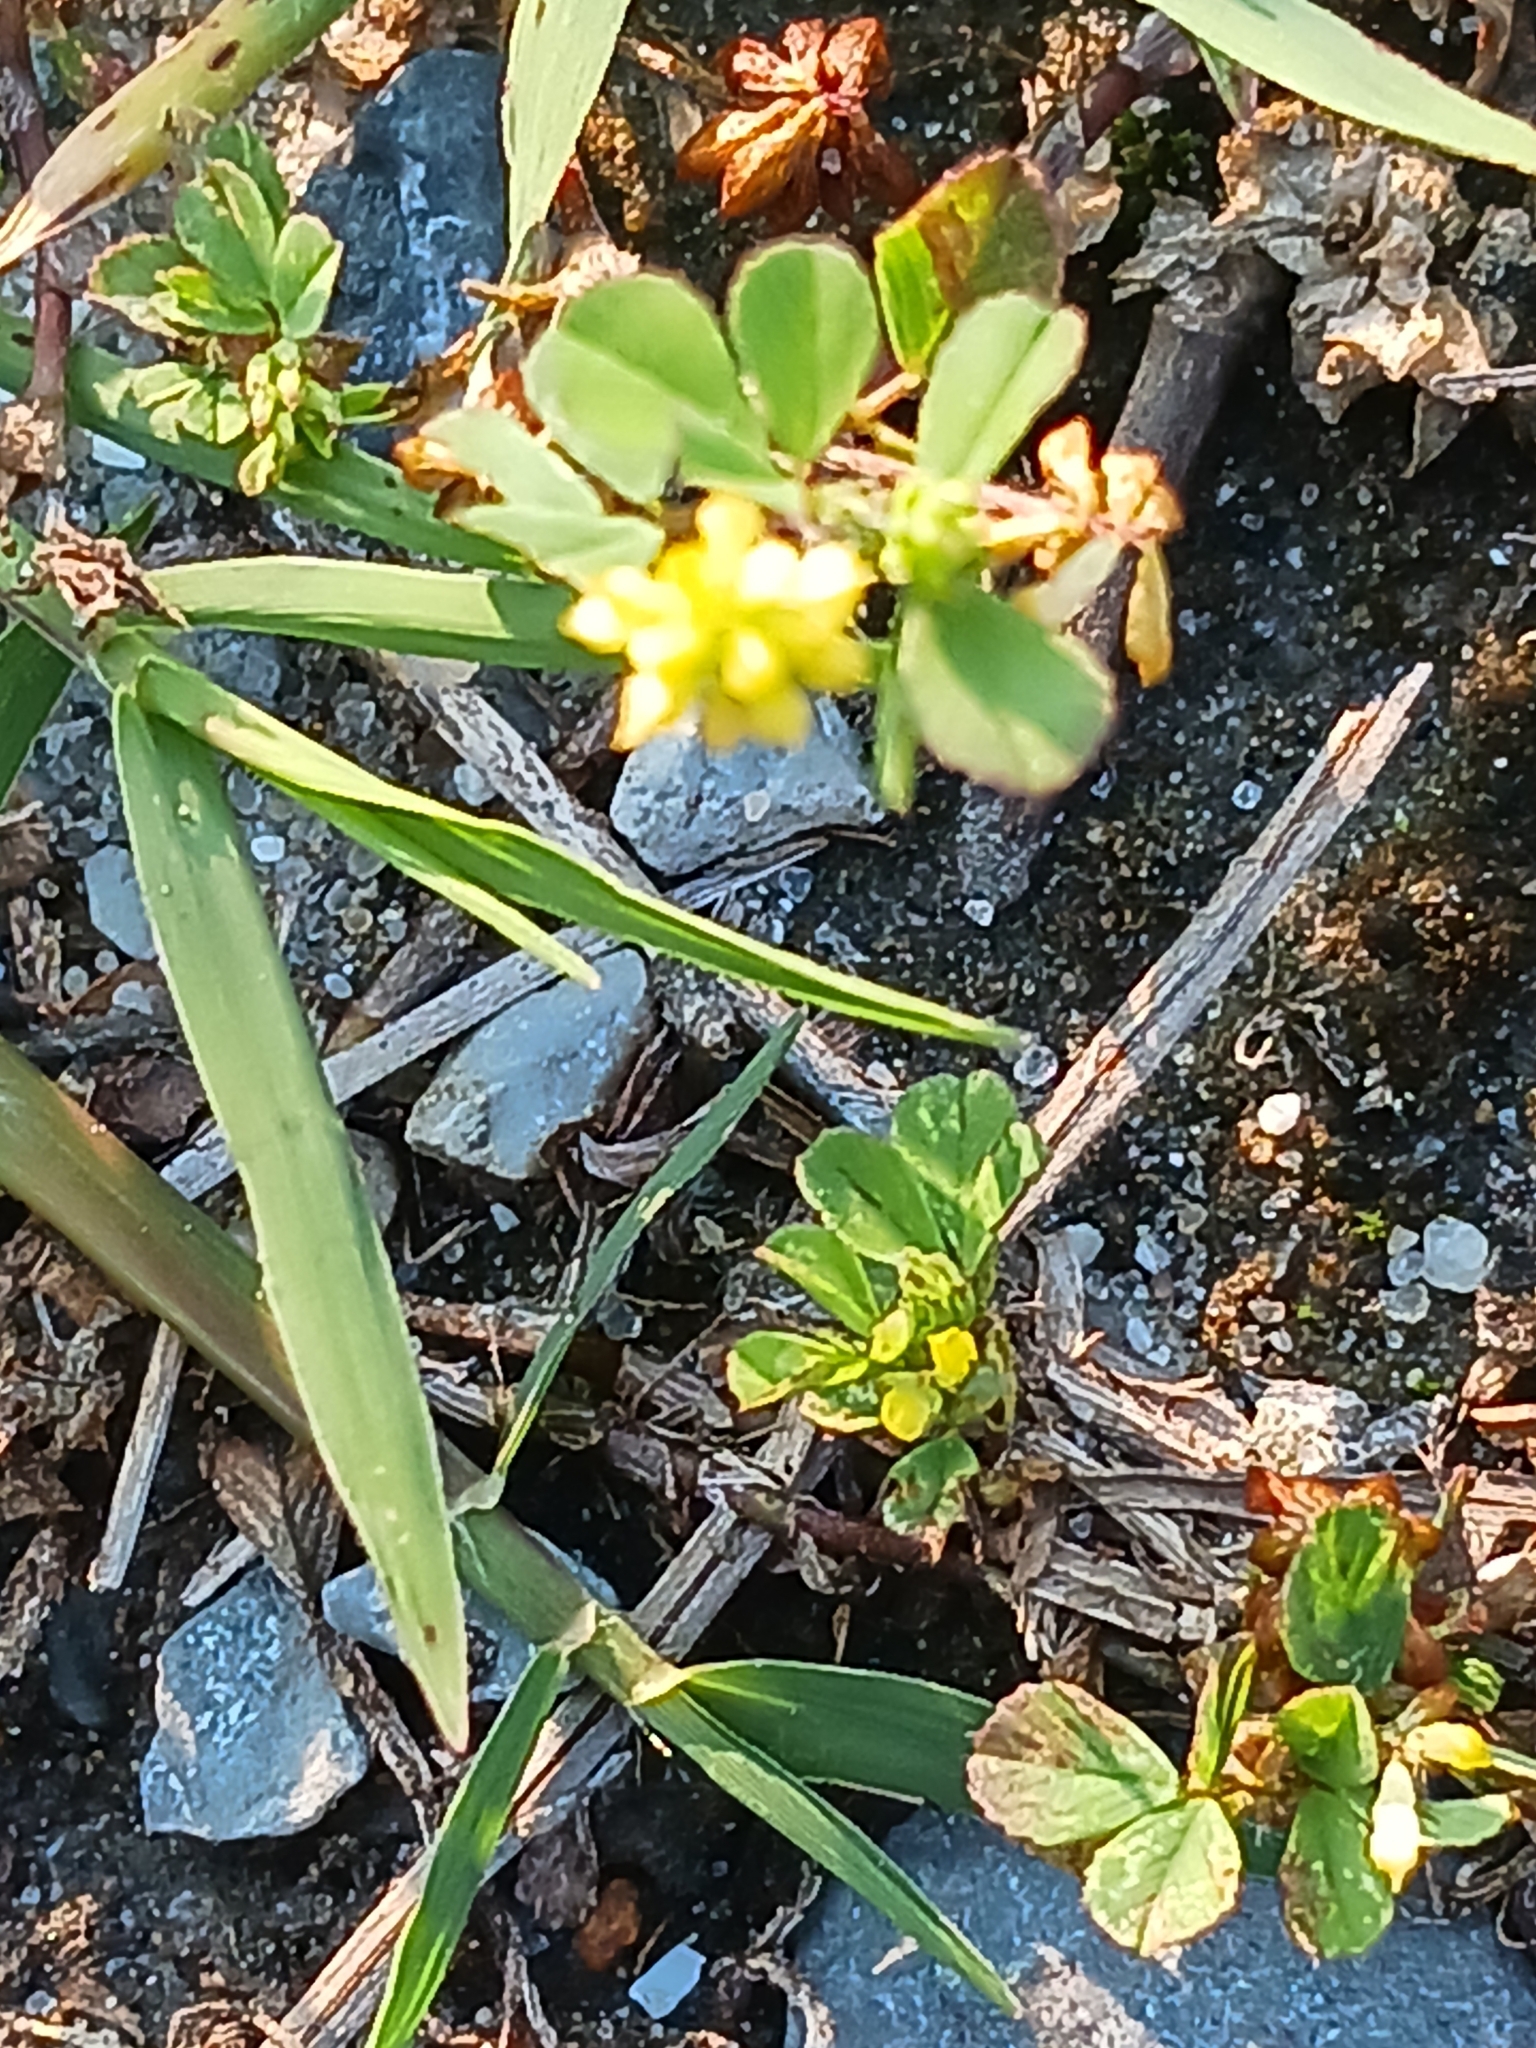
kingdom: Plantae
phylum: Tracheophyta
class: Magnoliopsida
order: Fabales
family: Fabaceae
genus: Trifolium
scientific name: Trifolium dubium
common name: Suckling clover
